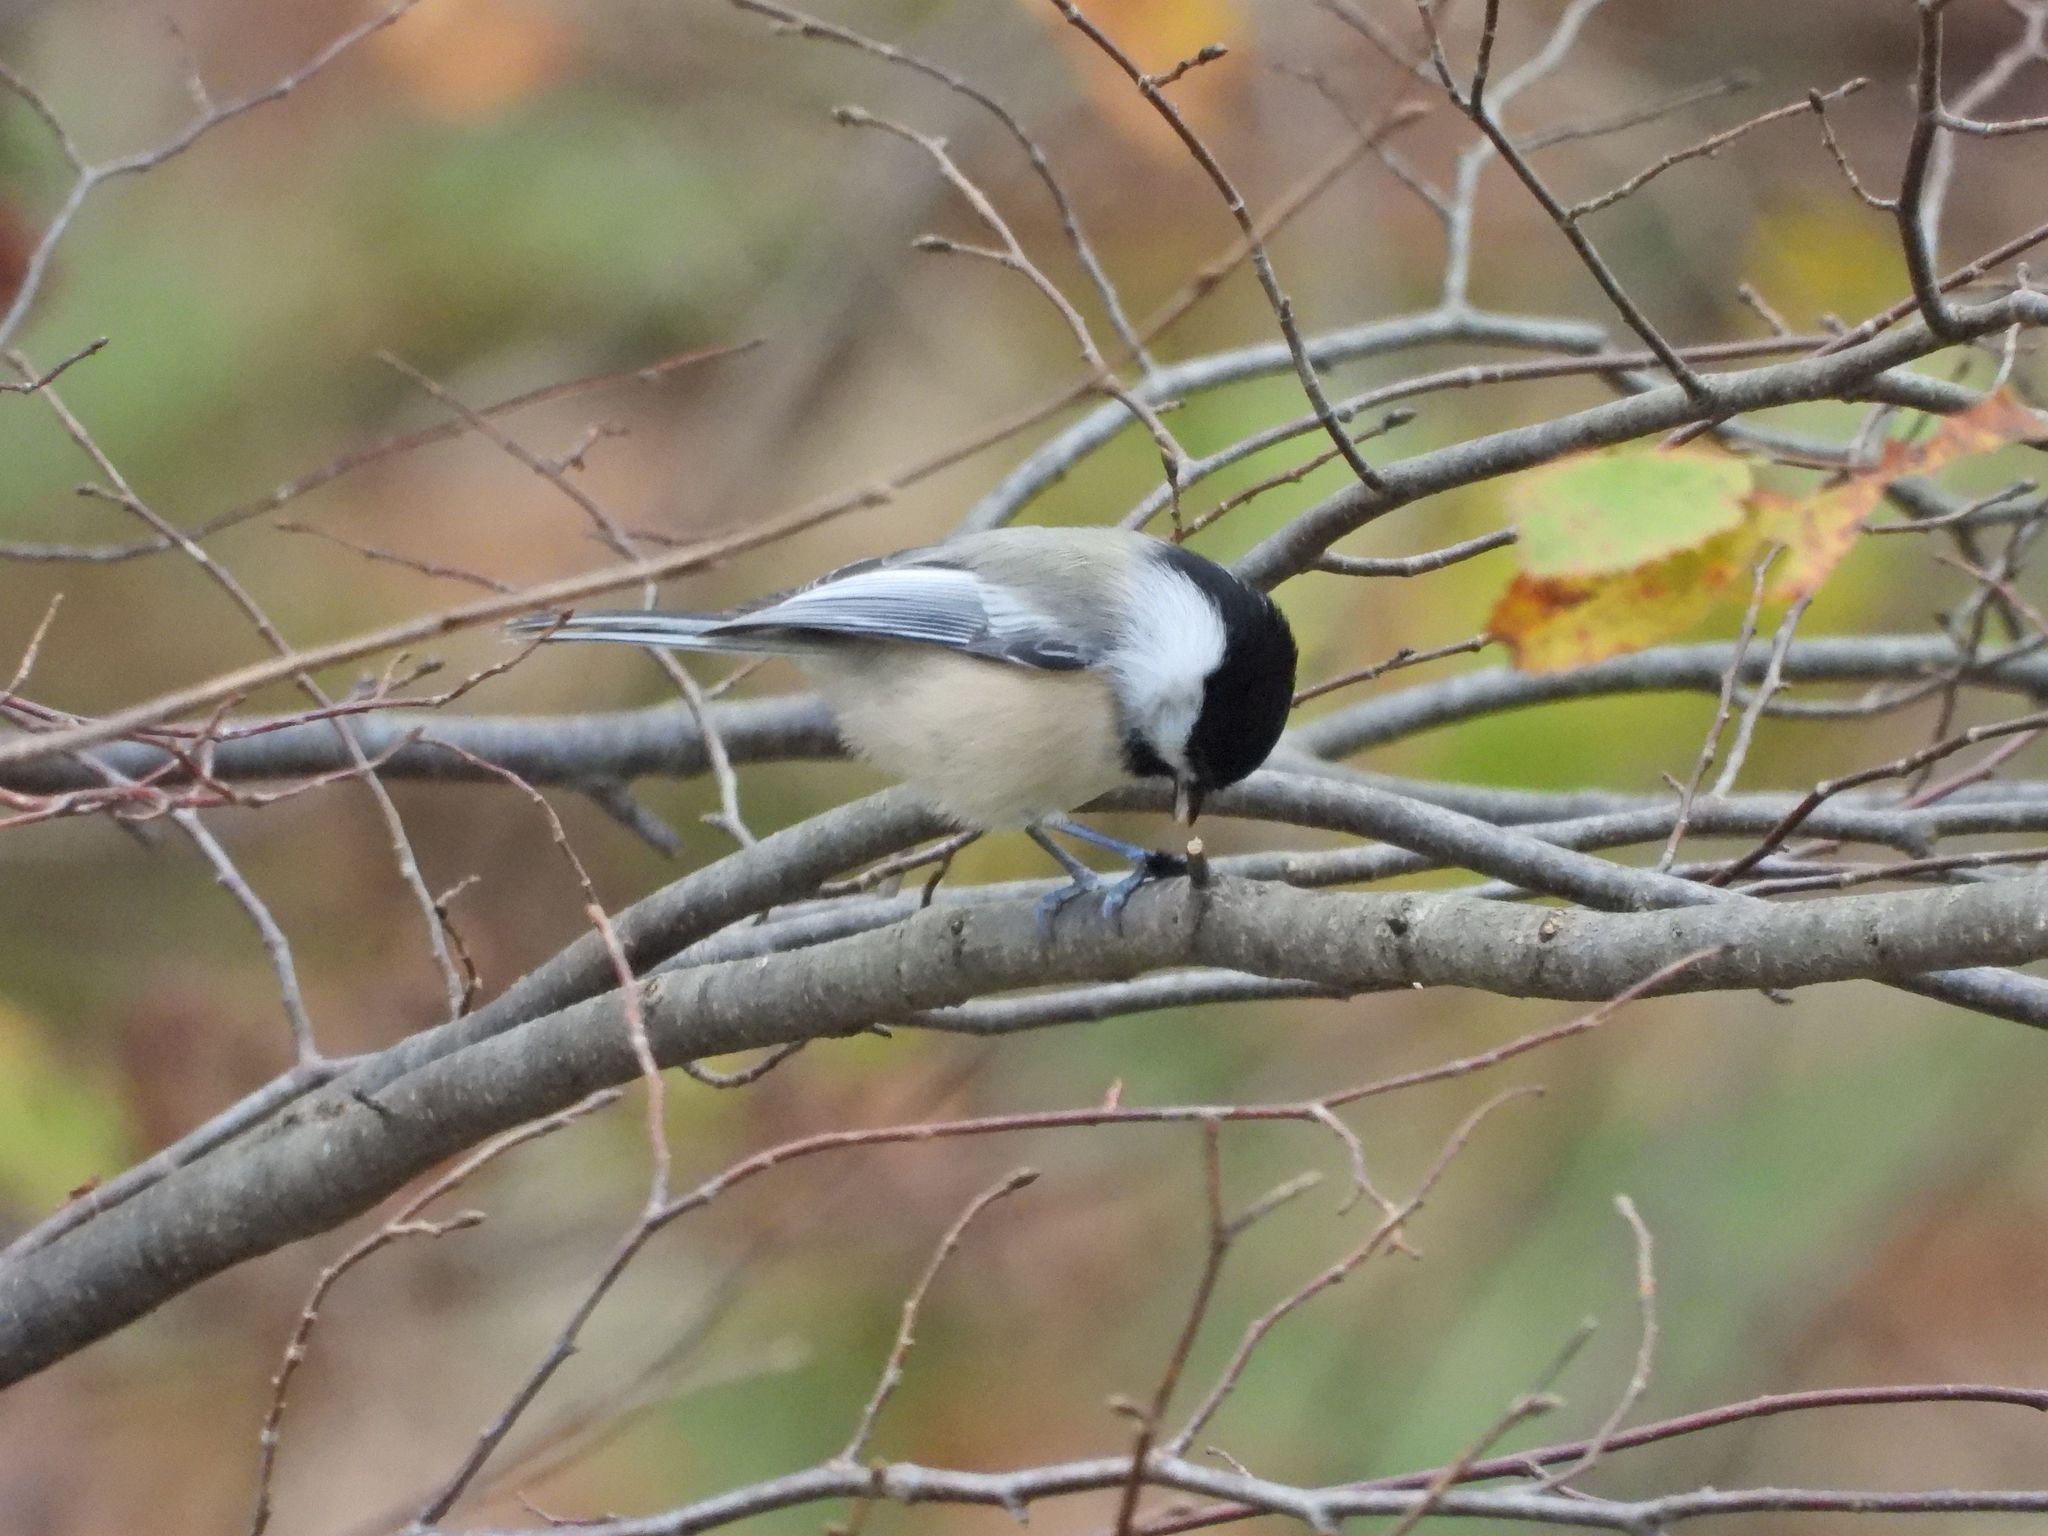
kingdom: Animalia
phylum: Chordata
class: Aves
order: Passeriformes
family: Paridae
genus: Poecile
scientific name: Poecile atricapillus
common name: Black-capped chickadee
